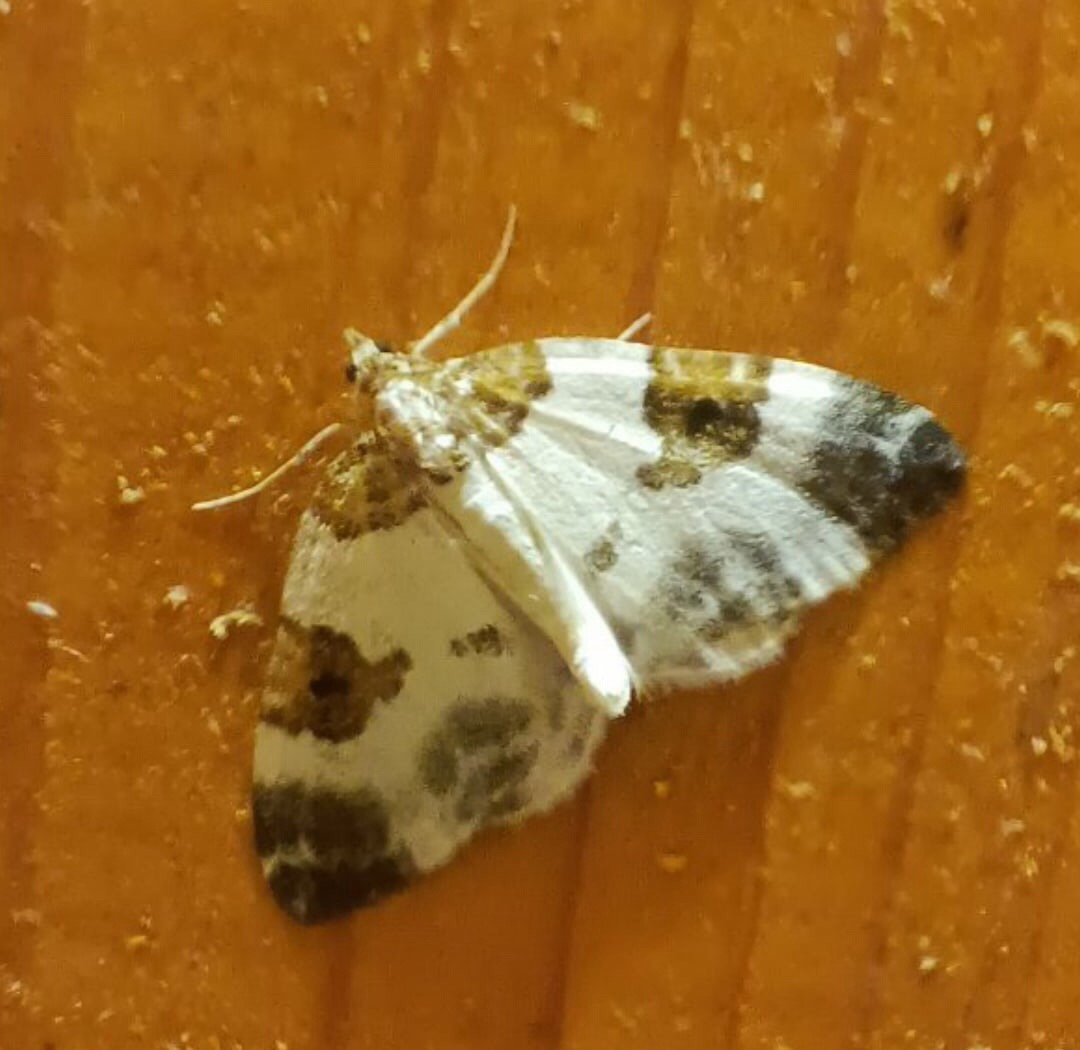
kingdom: Animalia
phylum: Arthropoda
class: Insecta
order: Lepidoptera
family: Geometridae
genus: Plemyria
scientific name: Plemyria rubiginata
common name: Blue-bordered carpet
